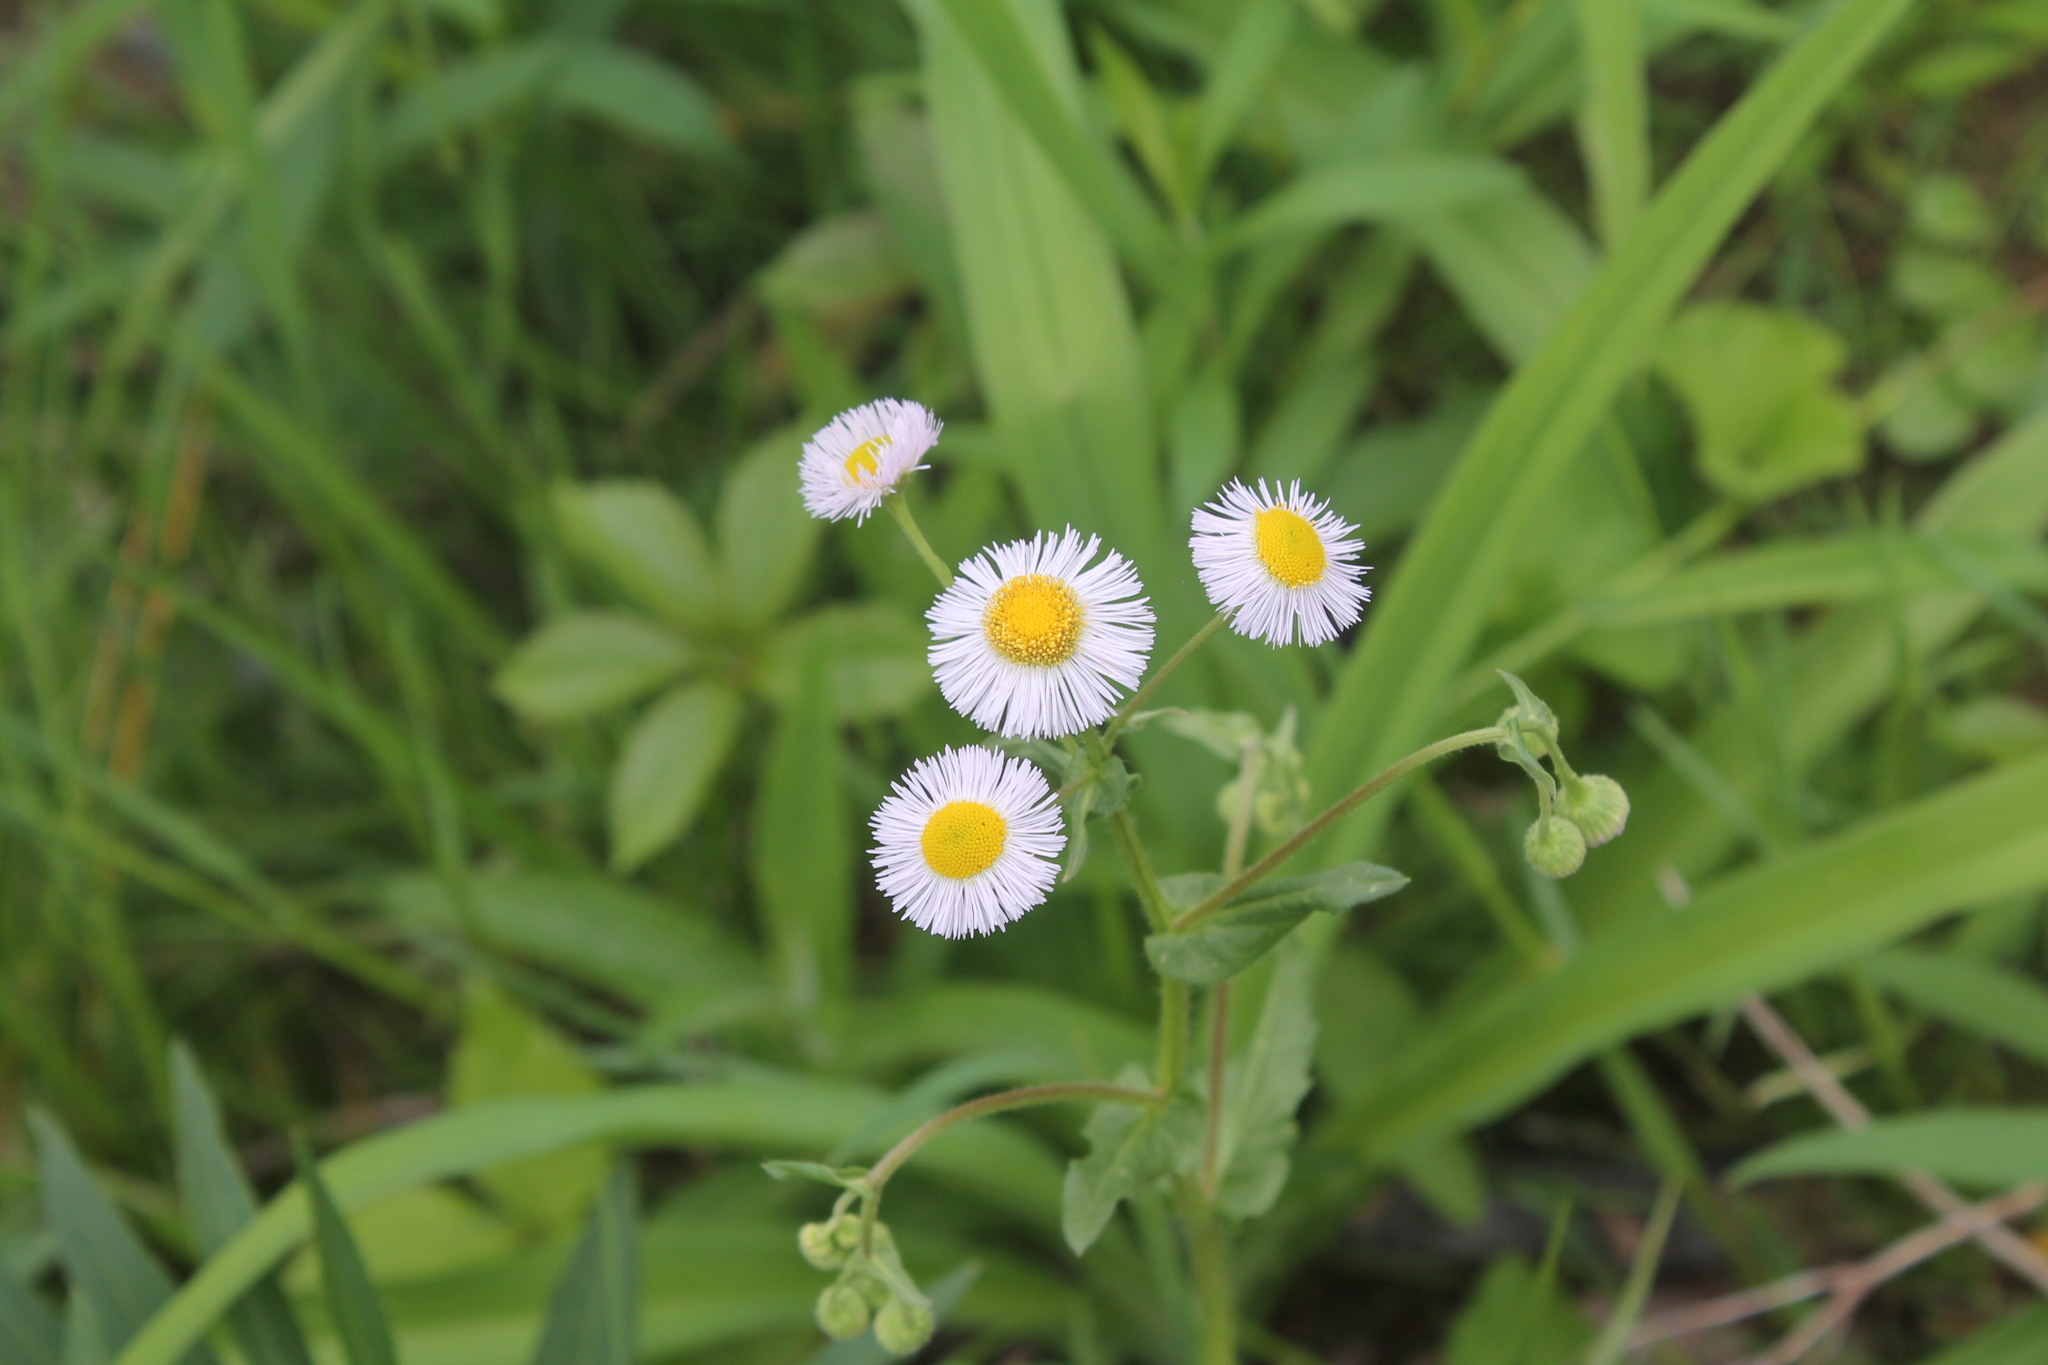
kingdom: Plantae
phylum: Tracheophyta
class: Magnoliopsida
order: Asterales
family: Asteraceae
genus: Erigeron
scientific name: Erigeron philadelphicus
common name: Robin's-plantain
